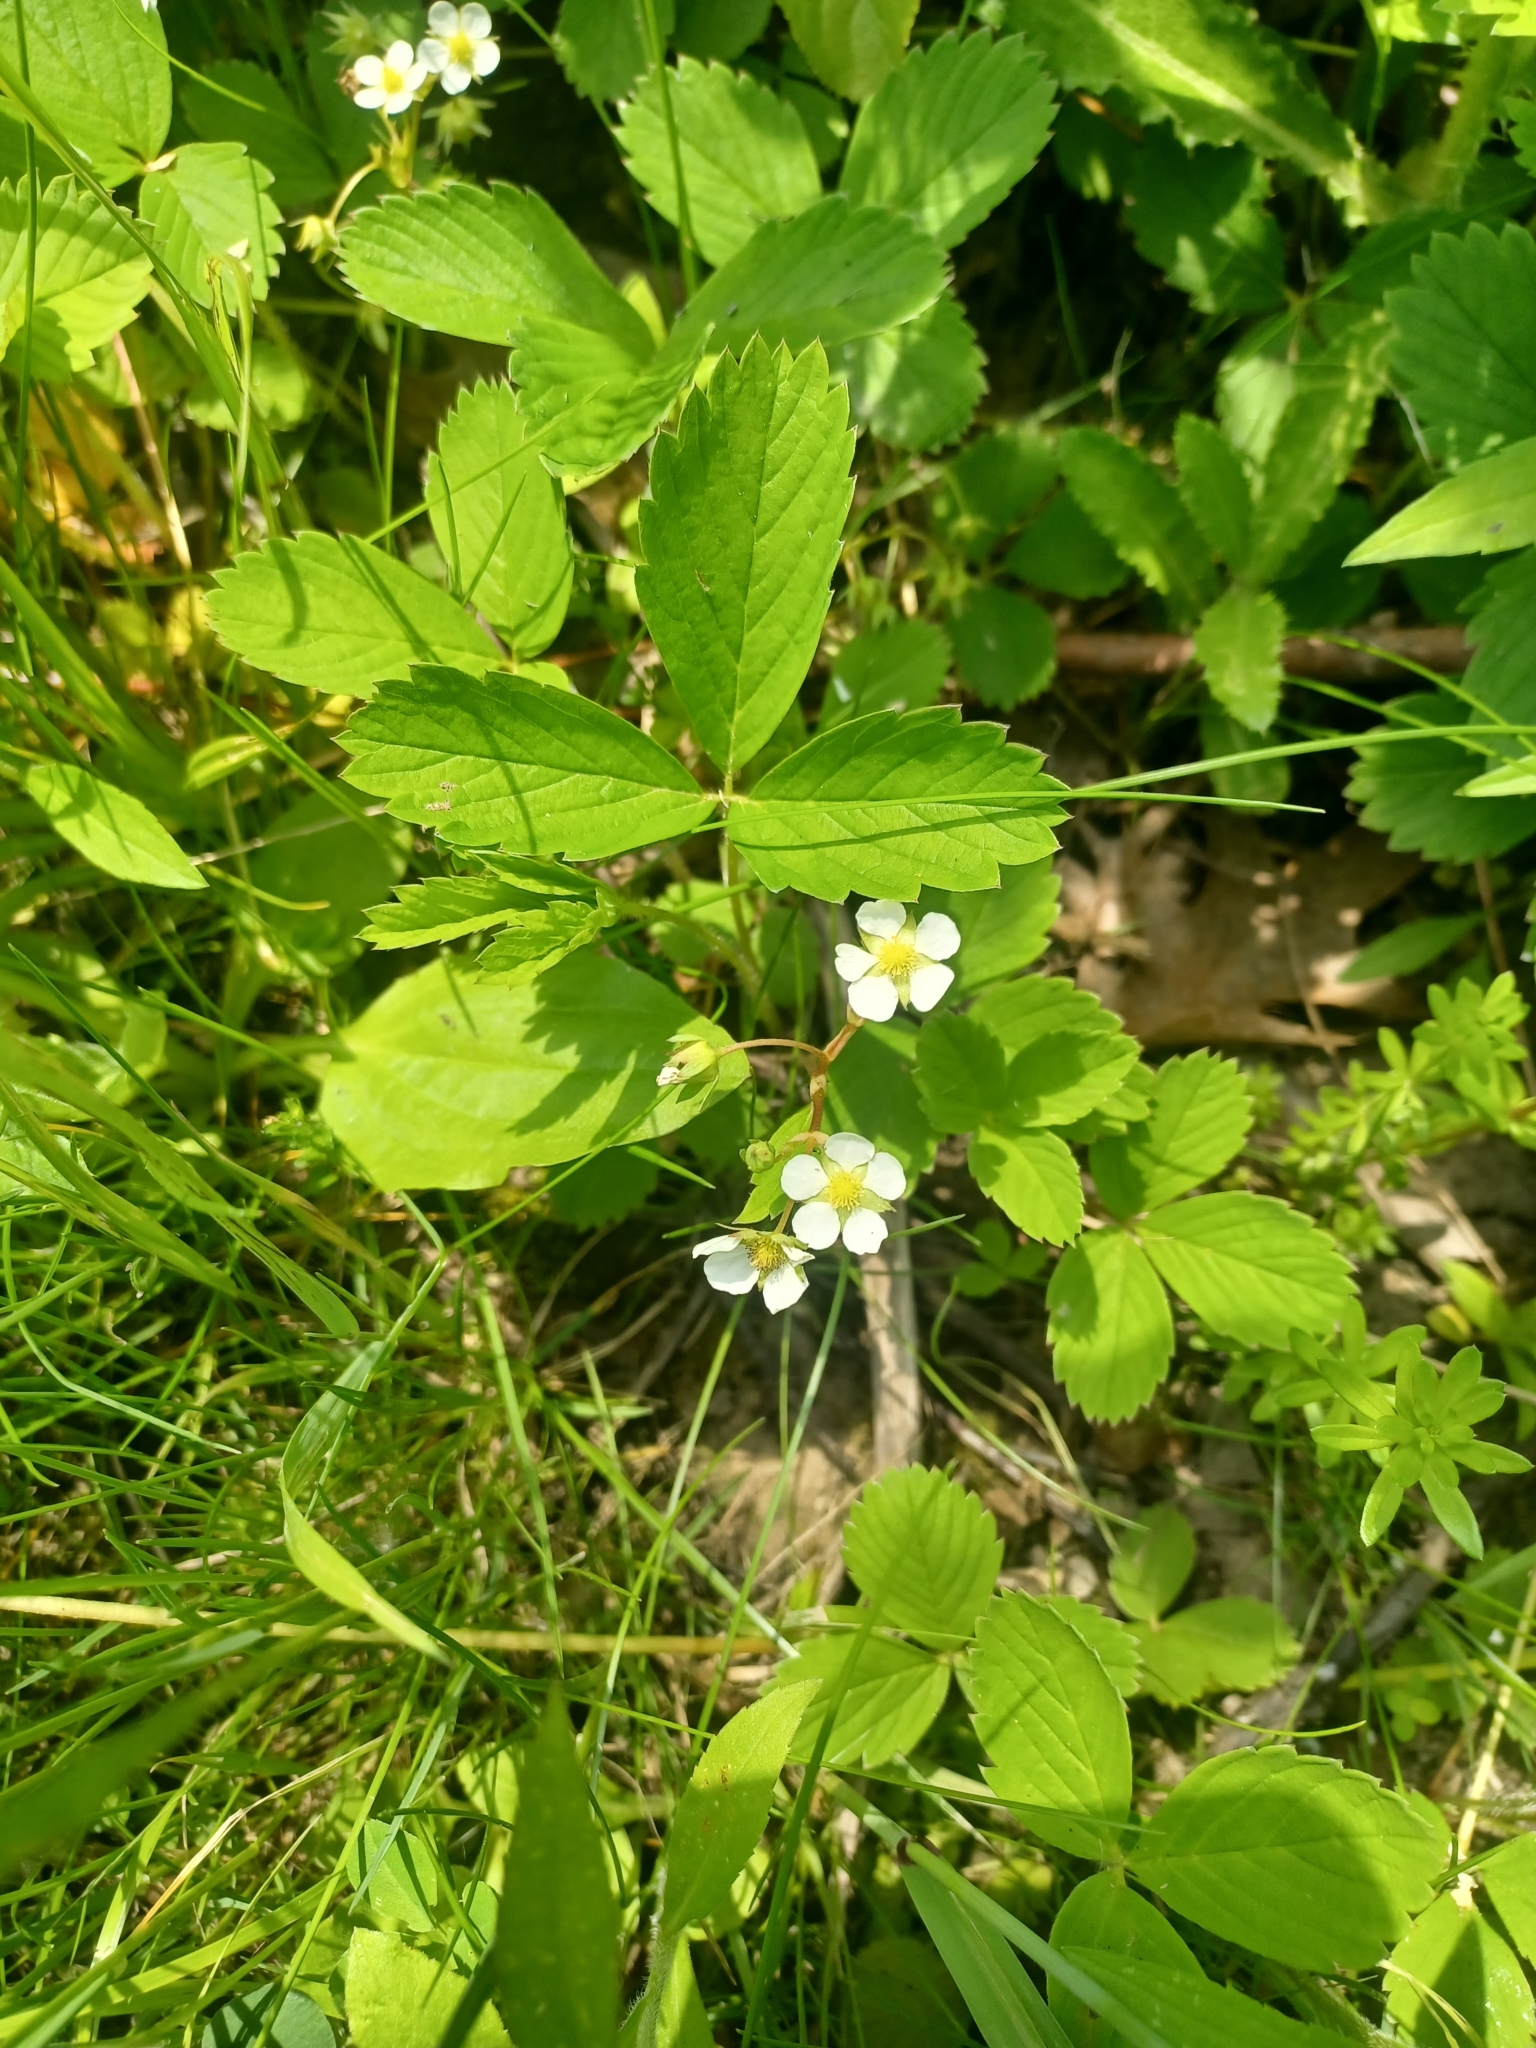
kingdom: Plantae
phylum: Tracheophyta
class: Magnoliopsida
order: Rosales
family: Rosaceae
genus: Fragaria
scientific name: Fragaria virginiana
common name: Thickleaved wild strawberry
